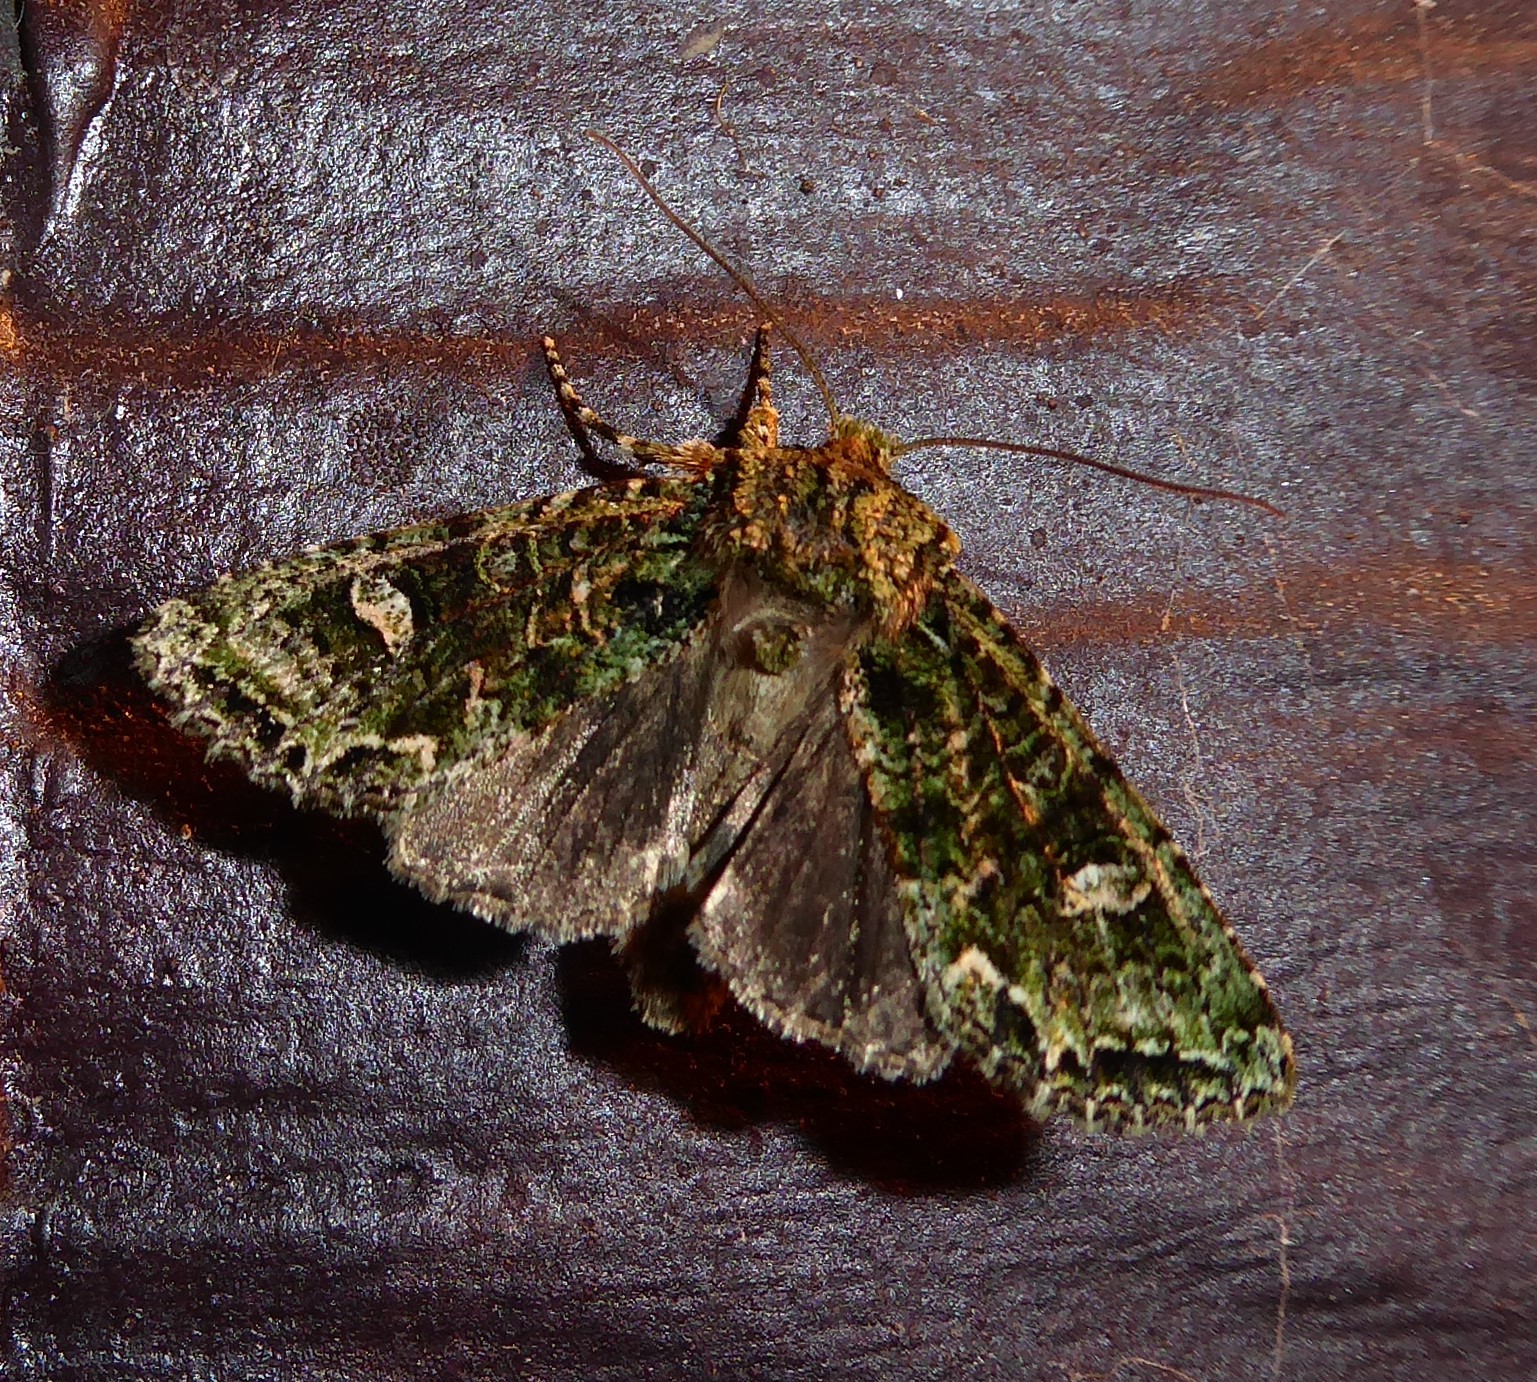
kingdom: Animalia
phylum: Arthropoda
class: Insecta
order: Lepidoptera
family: Noctuidae
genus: Ichneutica
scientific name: Ichneutica
